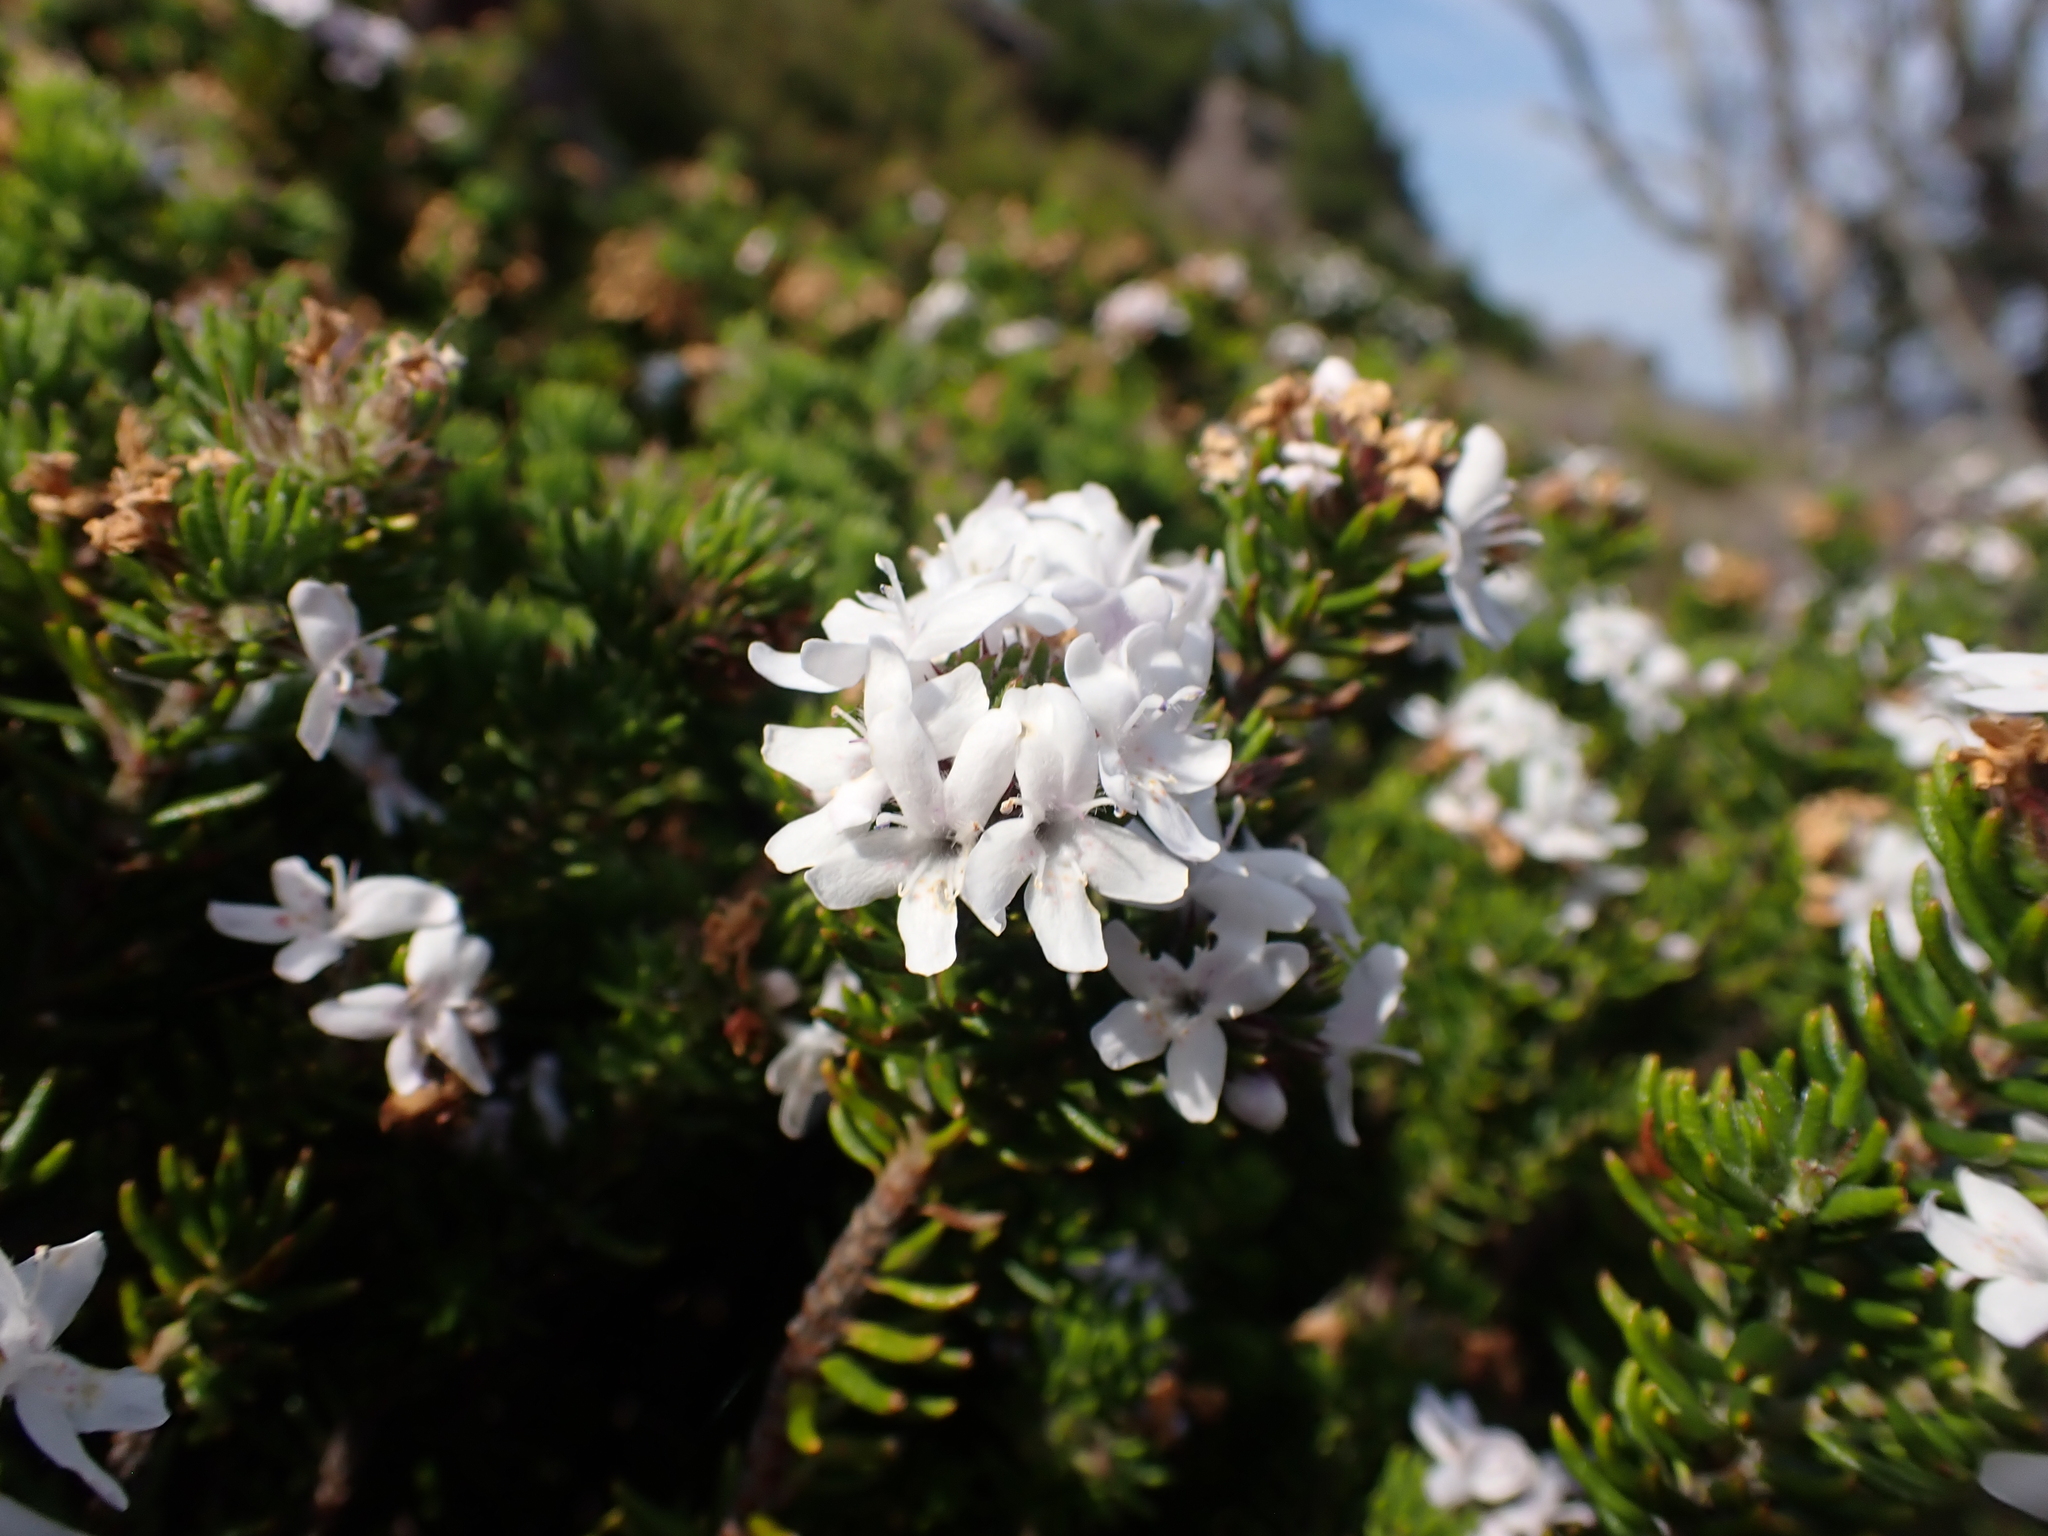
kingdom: Plantae
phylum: Tracheophyta
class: Magnoliopsida
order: Lamiales
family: Lamiaceae
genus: Westringia
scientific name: Westringia senifolia
